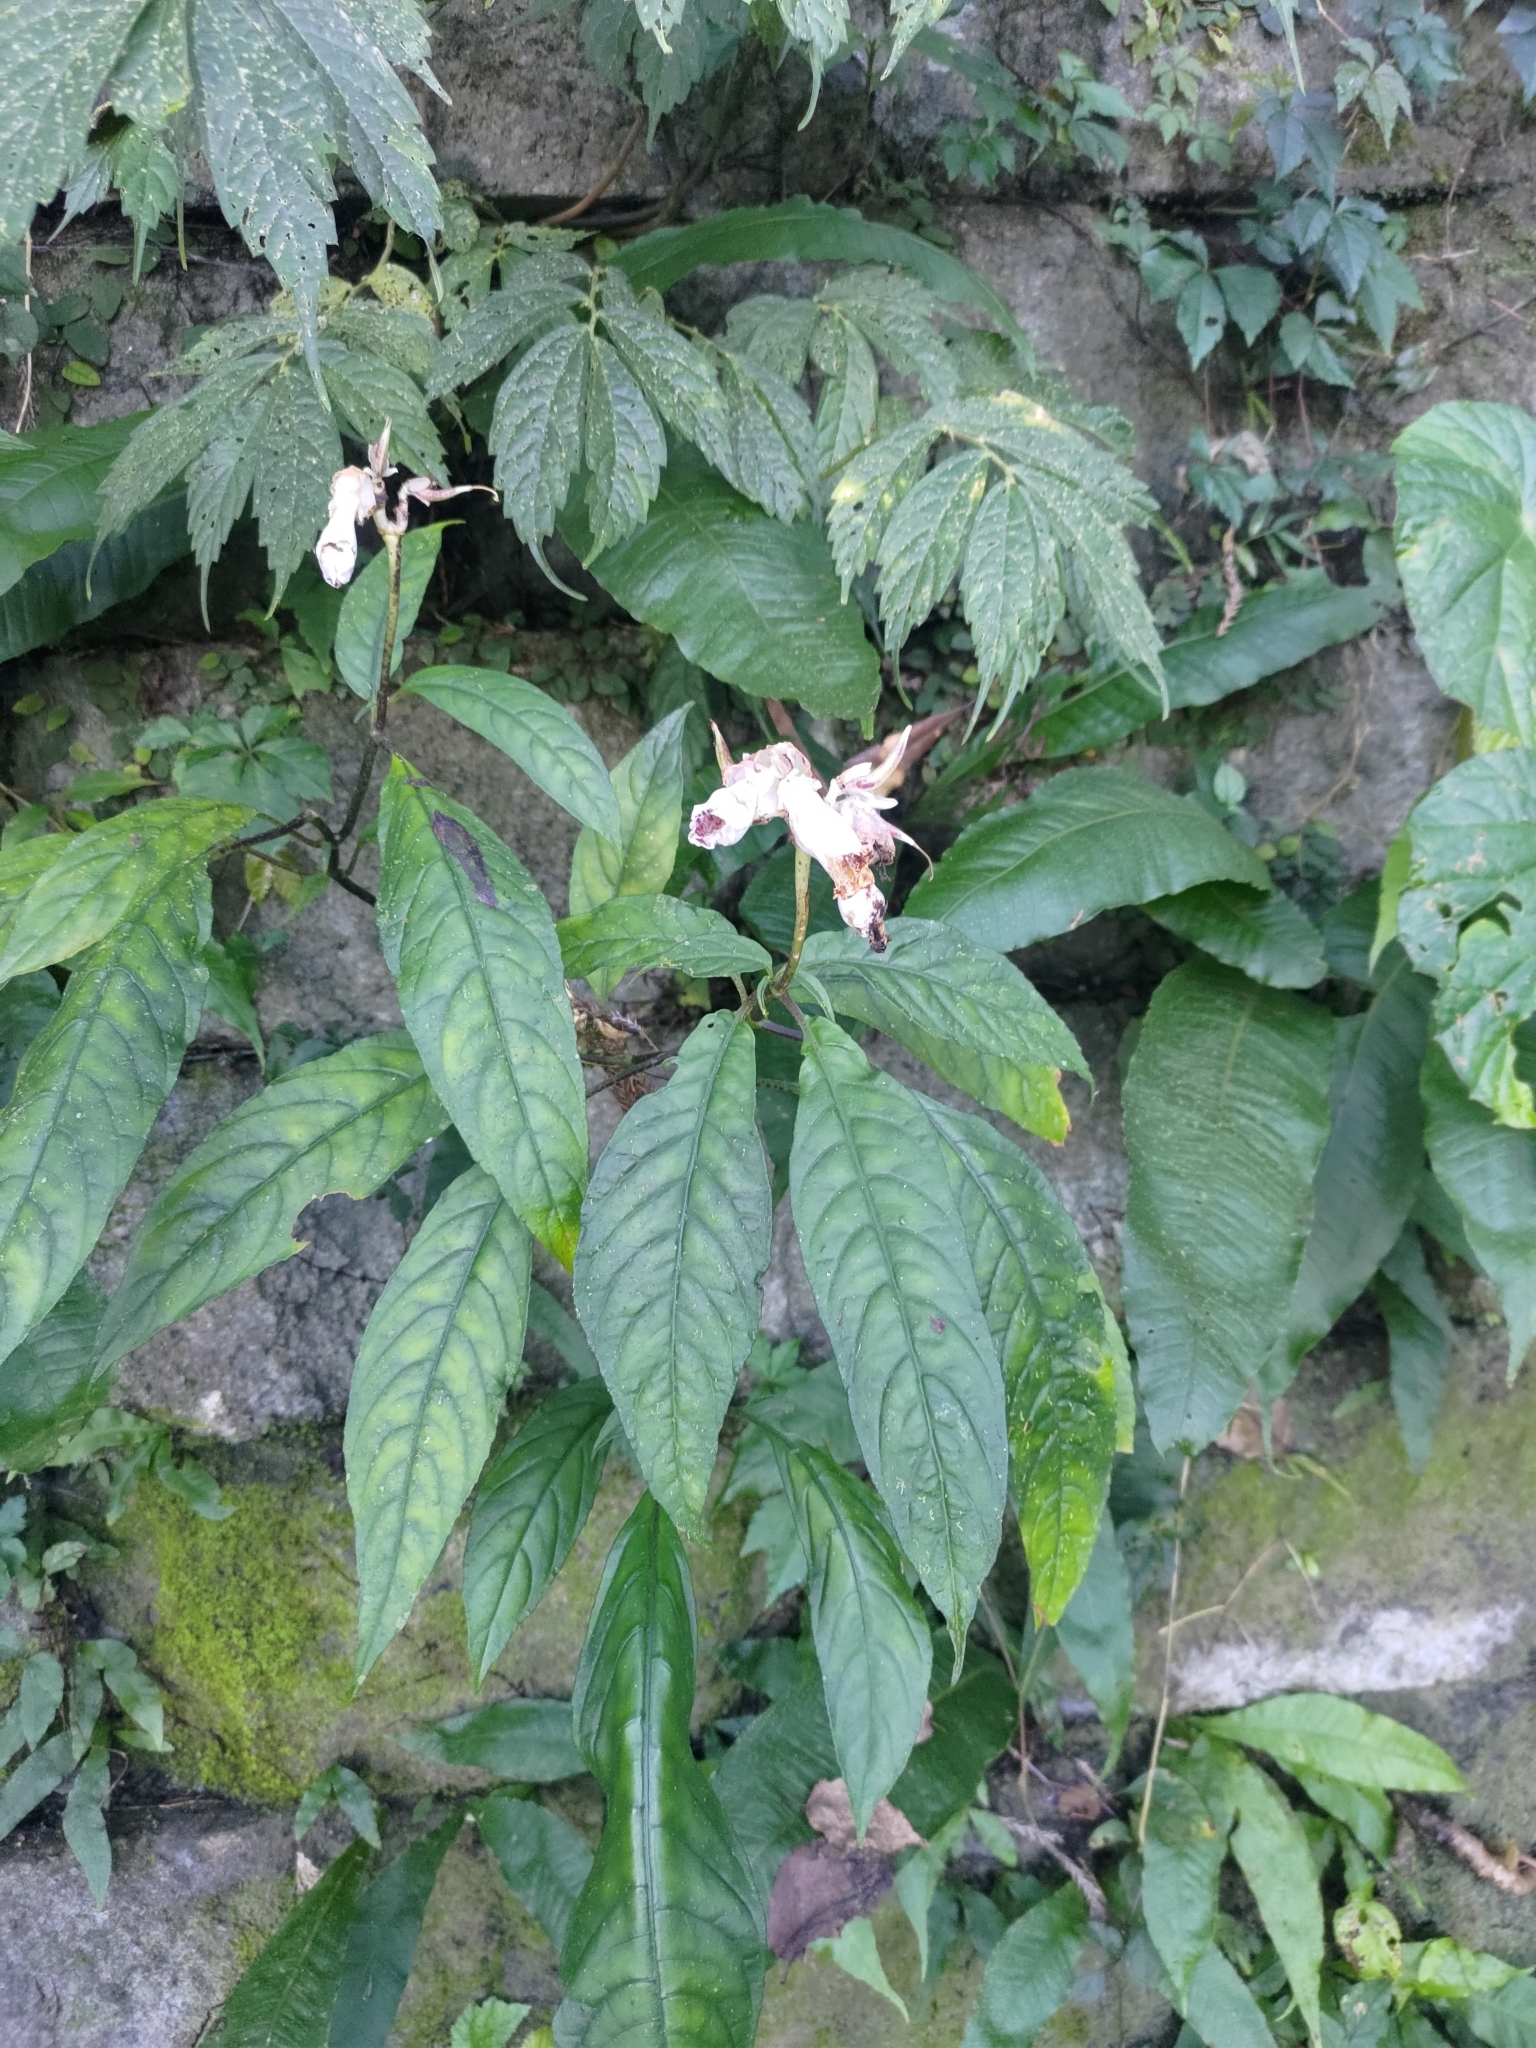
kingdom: Plantae
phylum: Tracheophyta
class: Magnoliopsida
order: Lamiales
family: Gesneriaceae
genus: Hemiboea
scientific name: Hemiboea bicornuta
